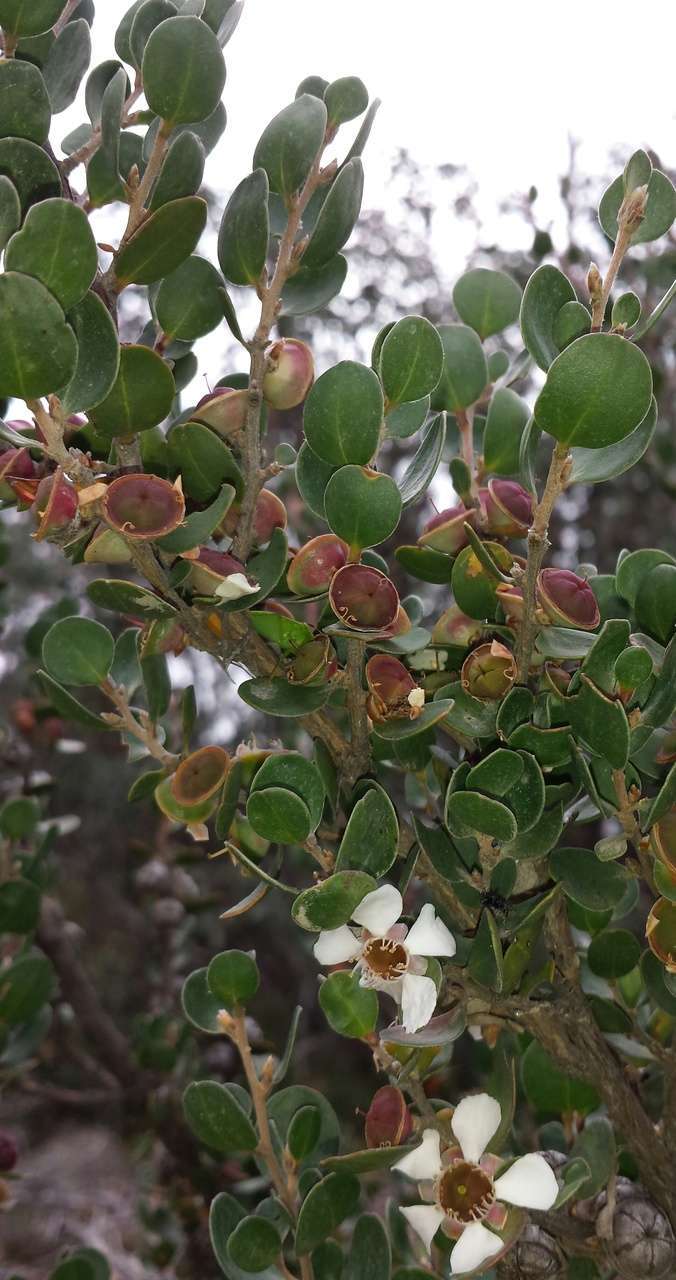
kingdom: Plantae
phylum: Tracheophyta
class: Magnoliopsida
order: Myrtales
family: Myrtaceae
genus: Leptospermum
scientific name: Leptospermum micromyrtus
